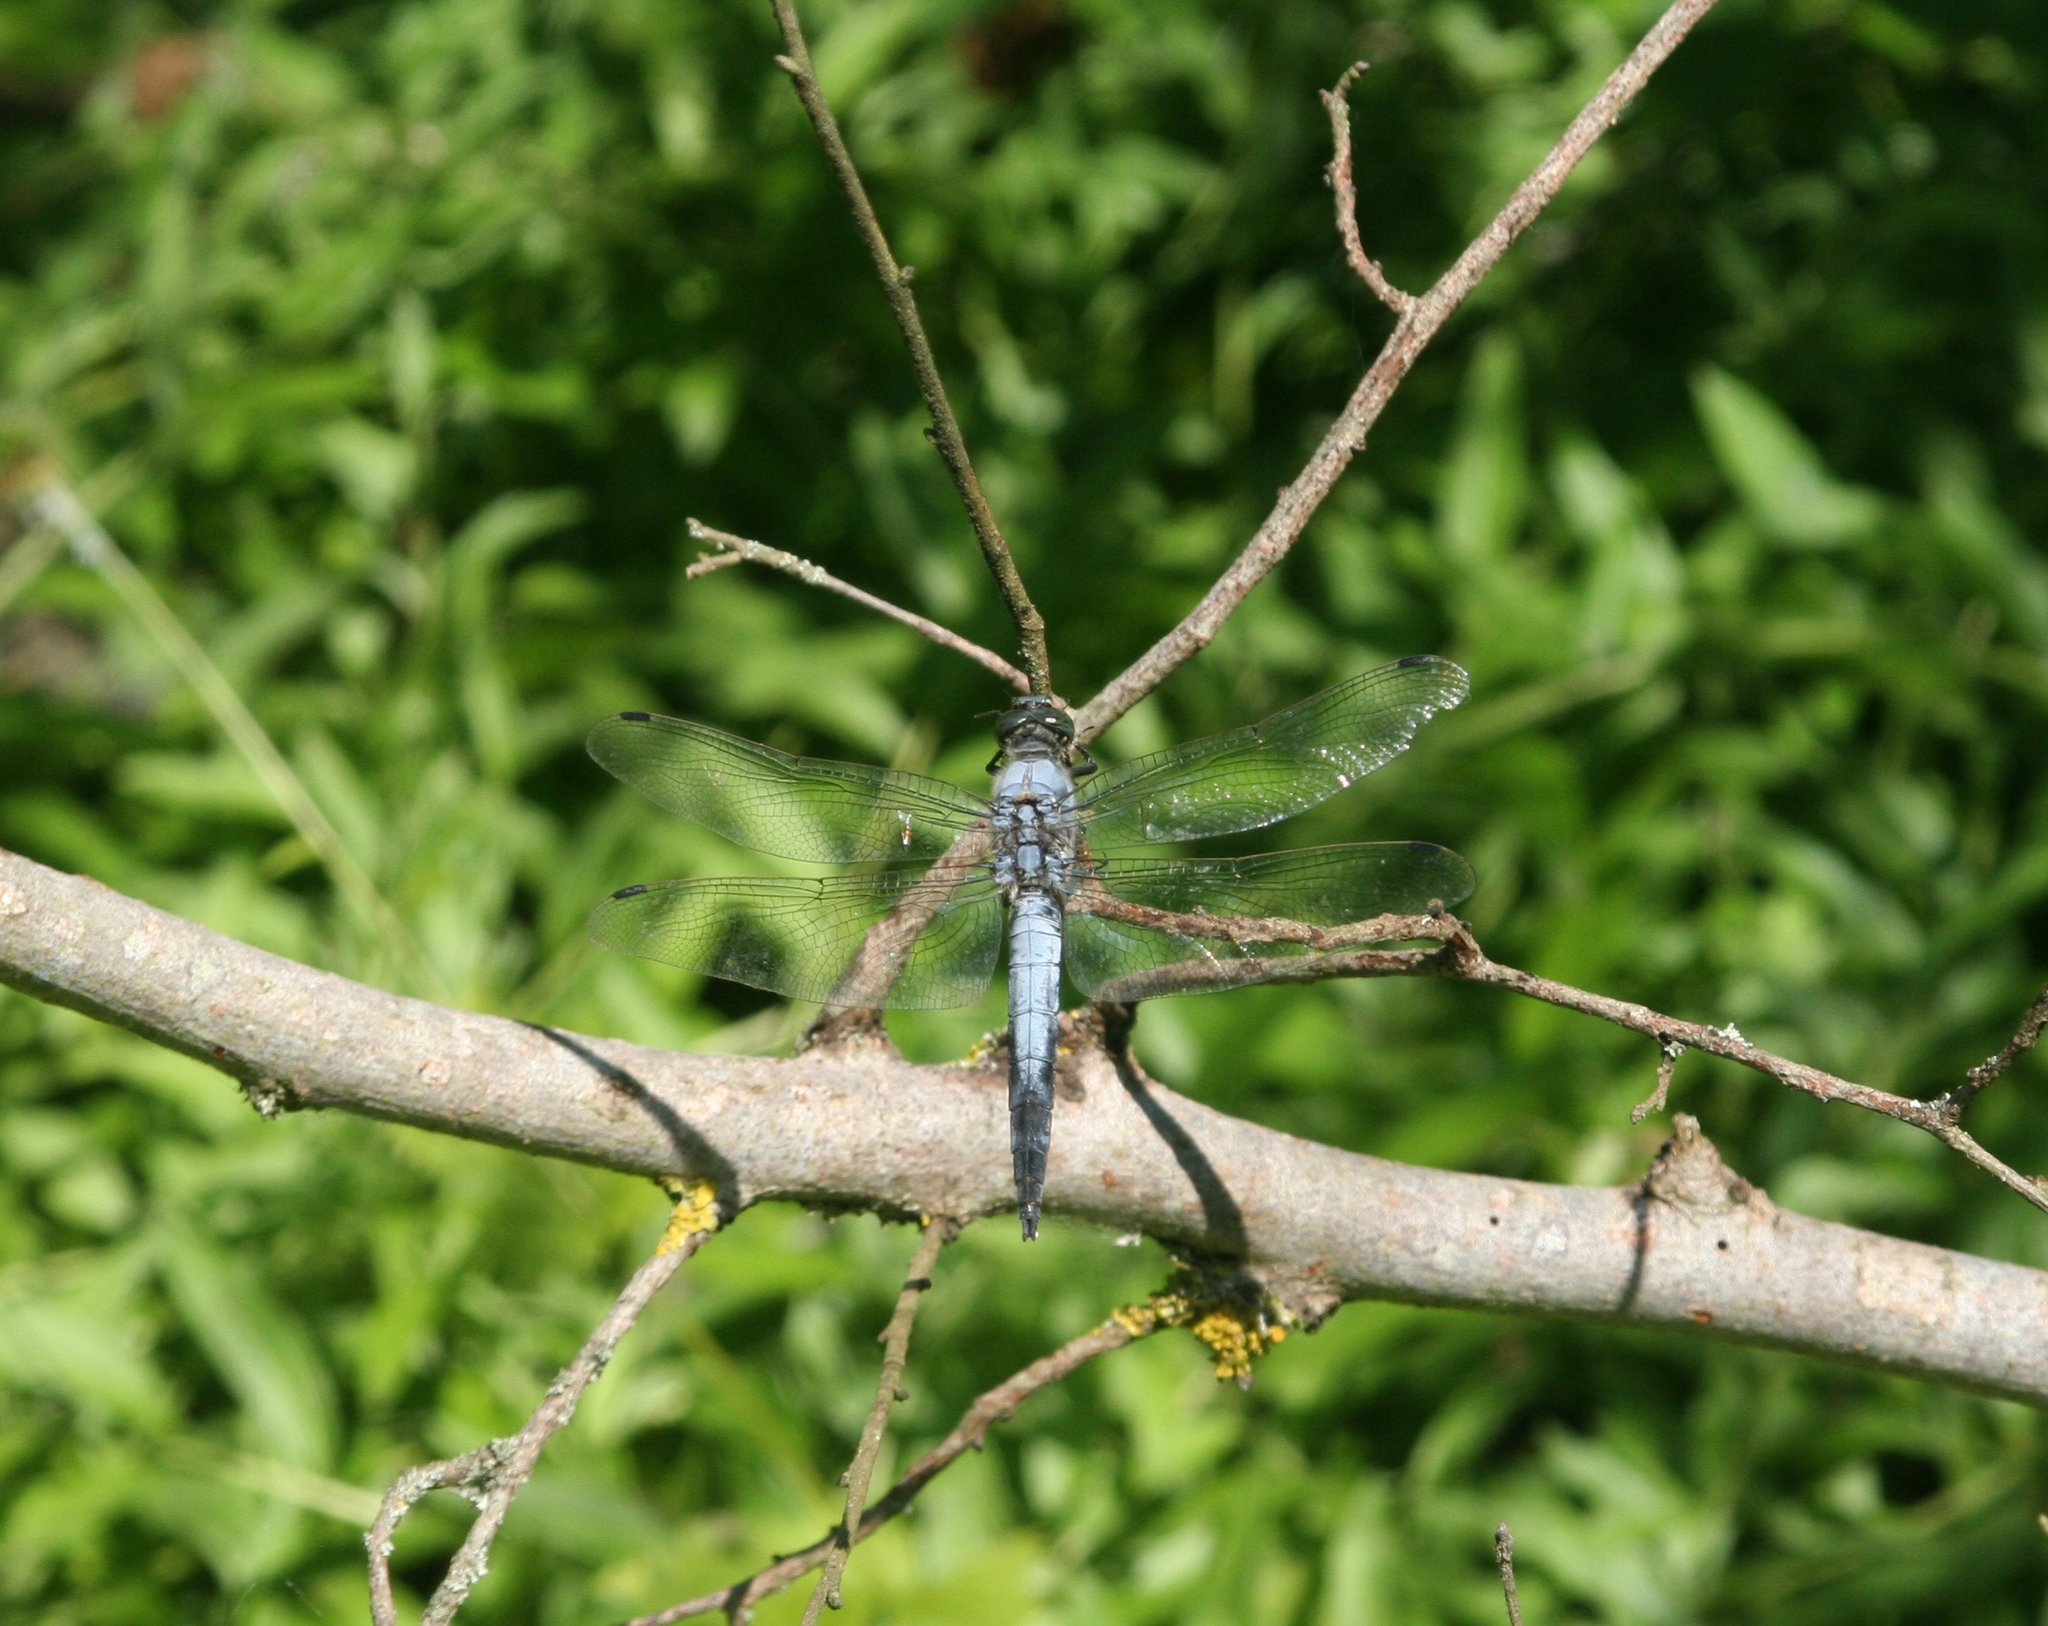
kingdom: Animalia
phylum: Arthropoda
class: Insecta
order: Odonata
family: Libellulidae
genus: Orthetrum
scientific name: Orthetrum cancellatum
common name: Black-tailed skimmer
